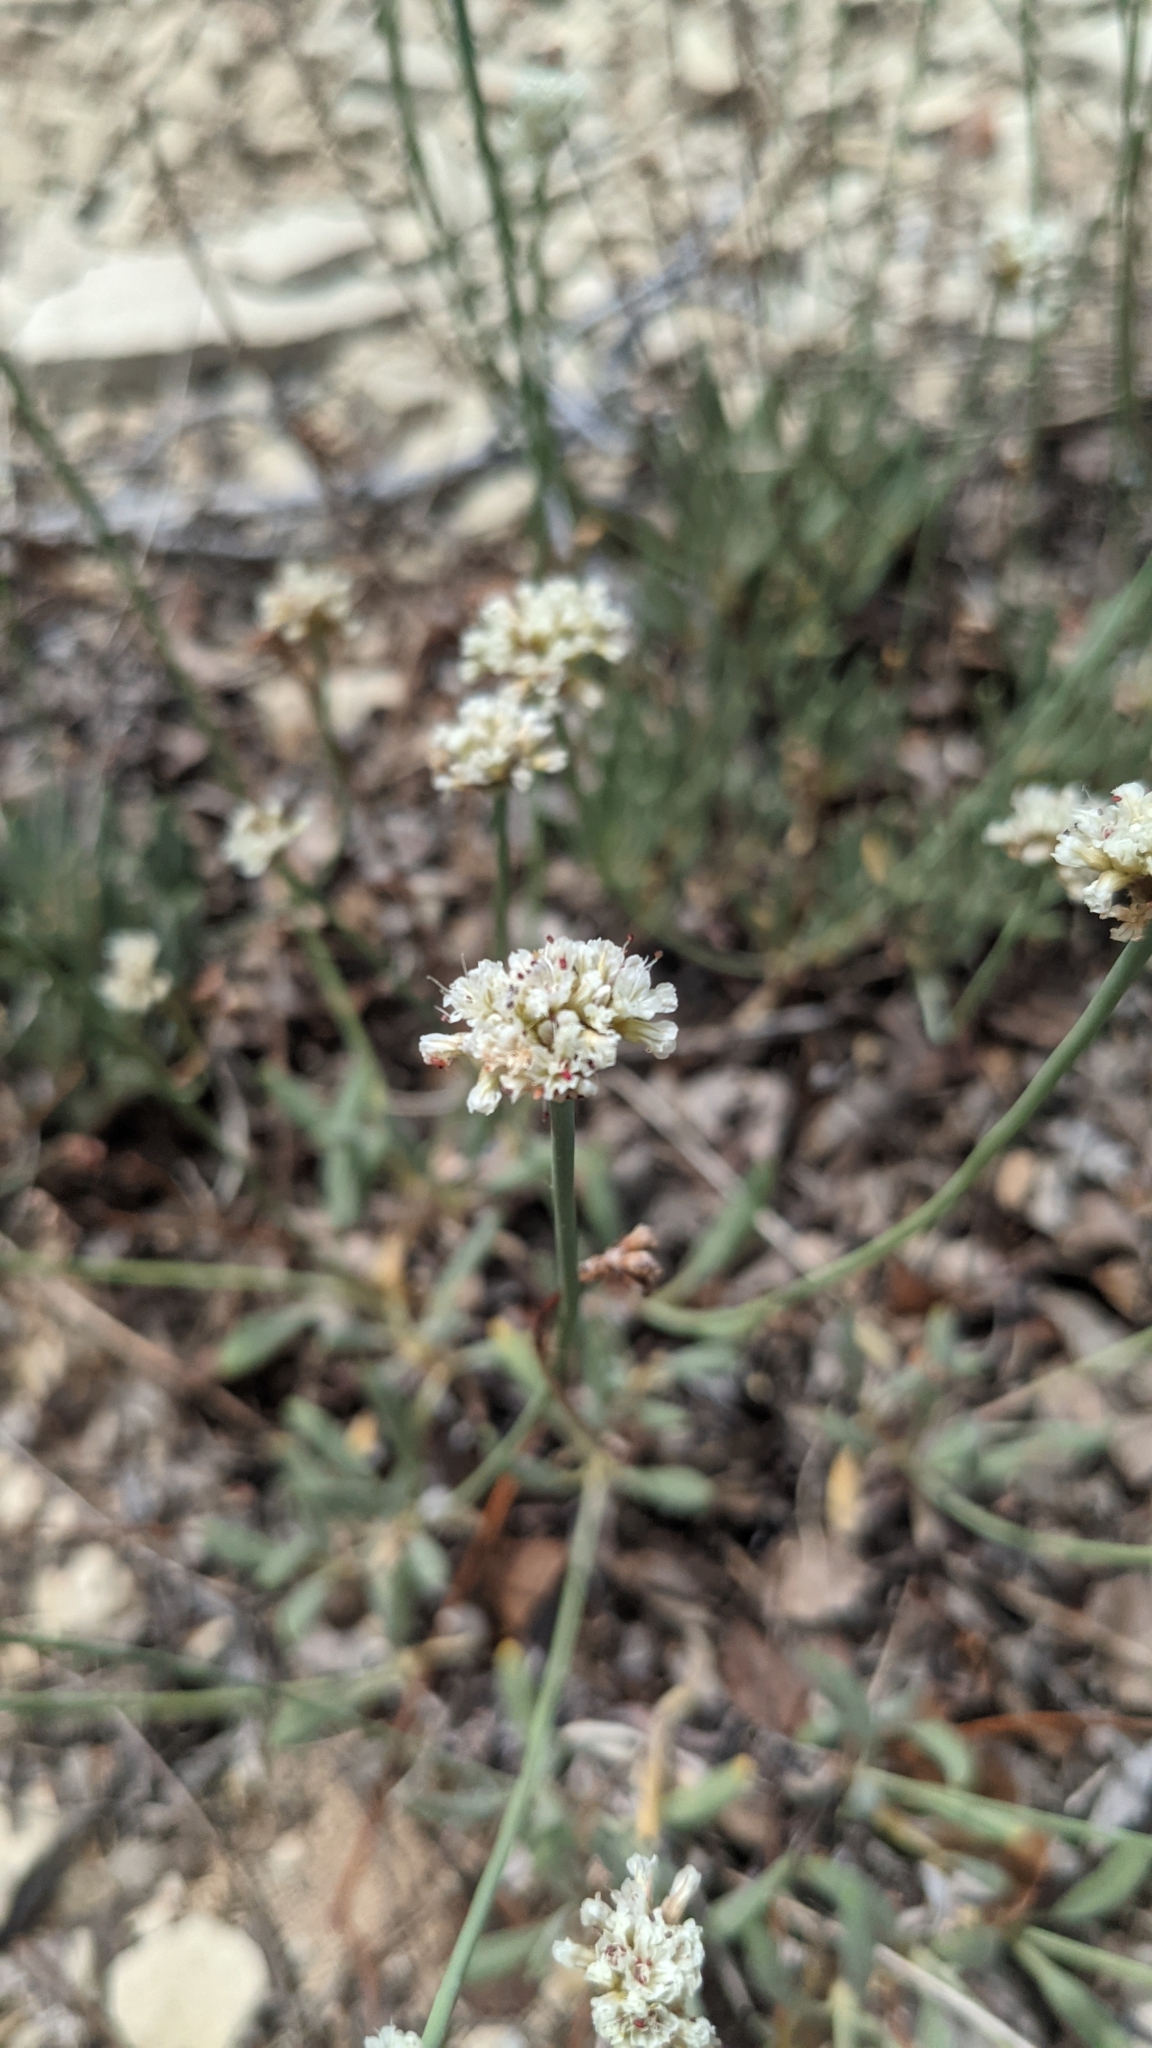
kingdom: Plantae
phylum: Tracheophyta
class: Magnoliopsida
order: Caryophyllales
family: Polygonaceae
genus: Eriogonum
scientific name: Eriogonum panguicense
